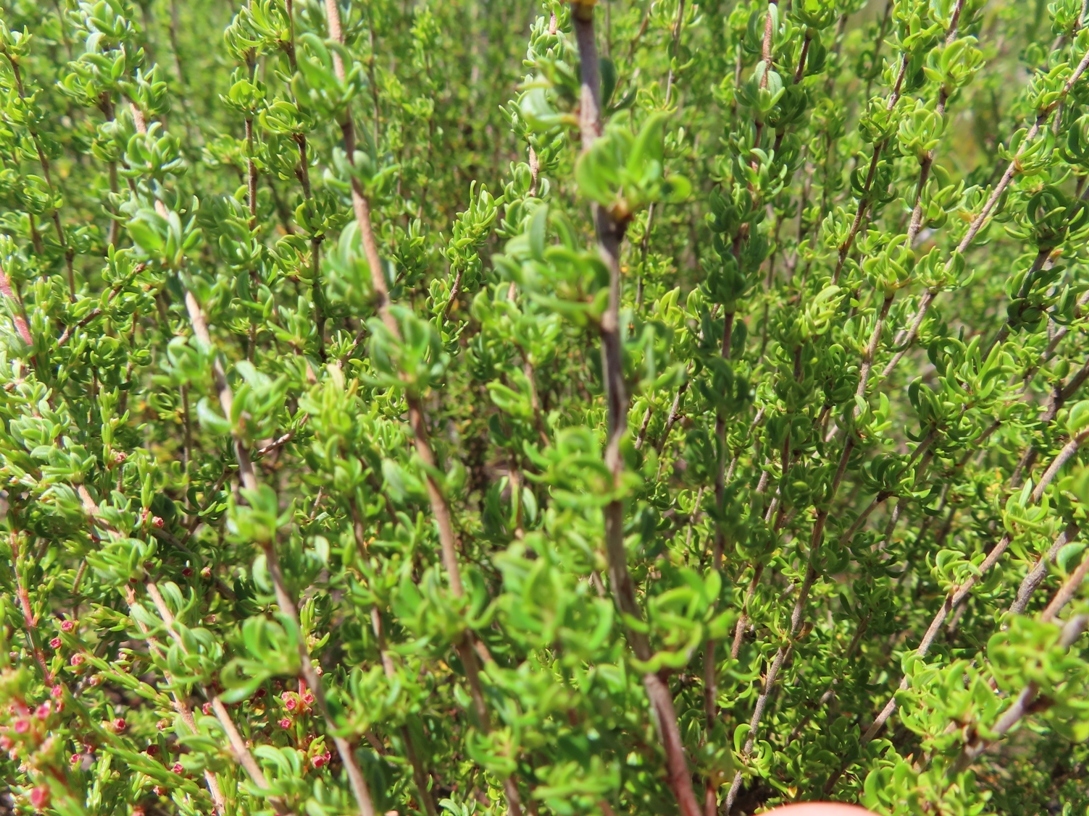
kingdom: Plantae
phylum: Tracheophyta
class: Magnoliopsida
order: Rosales
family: Rosaceae
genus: Cliffortia
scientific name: Cliffortia falcata
